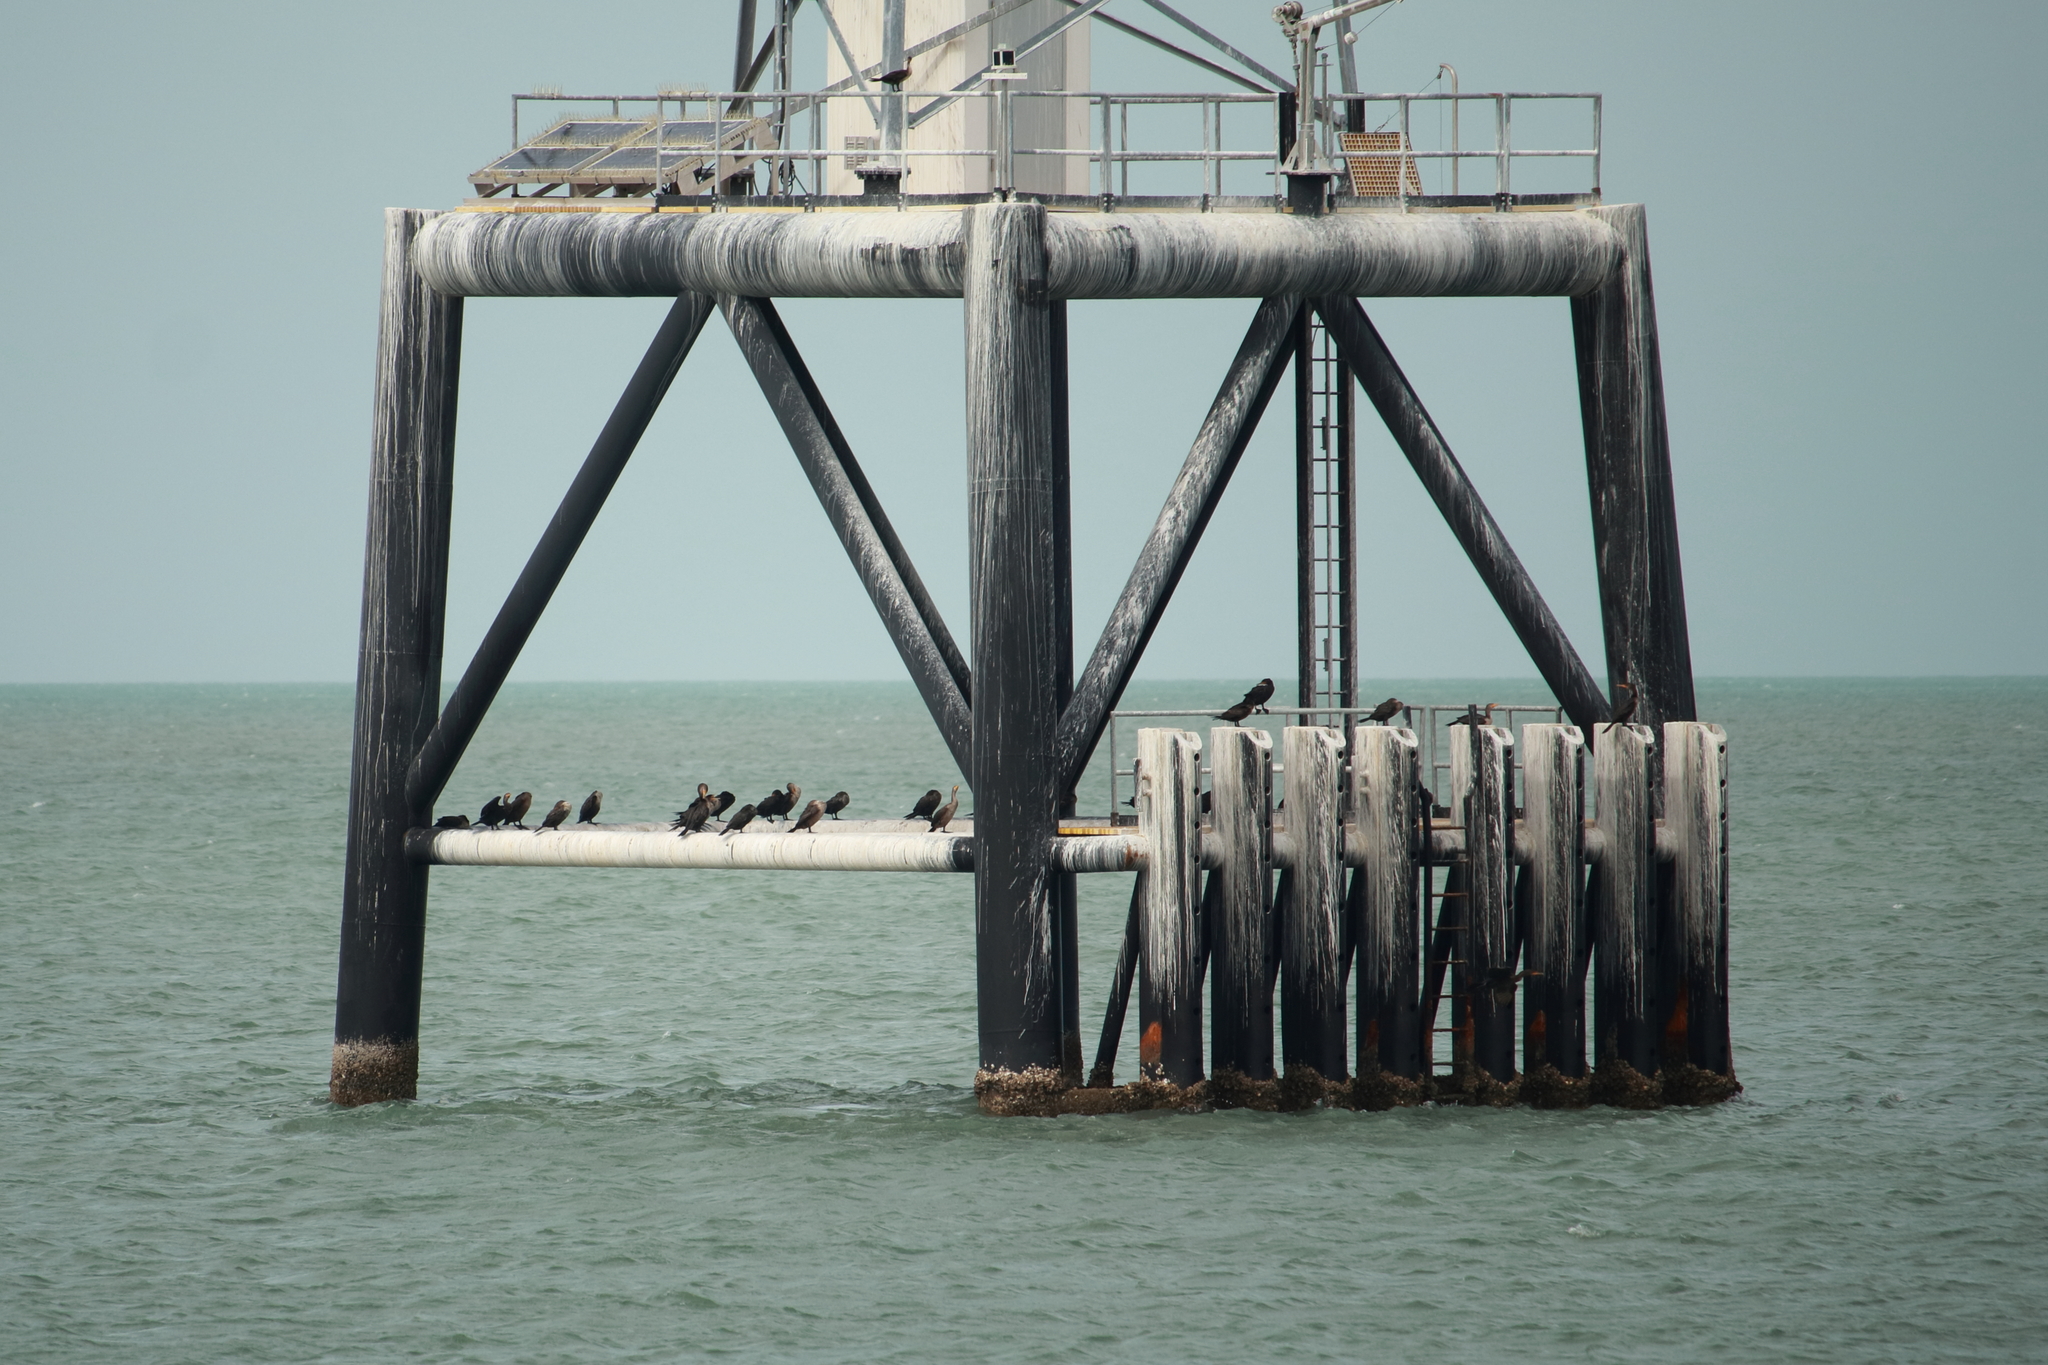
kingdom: Animalia
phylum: Chordata
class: Aves
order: Suliformes
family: Phalacrocoracidae
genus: Phalacrocorax
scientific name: Phalacrocorax auritus
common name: Double-crested cormorant
